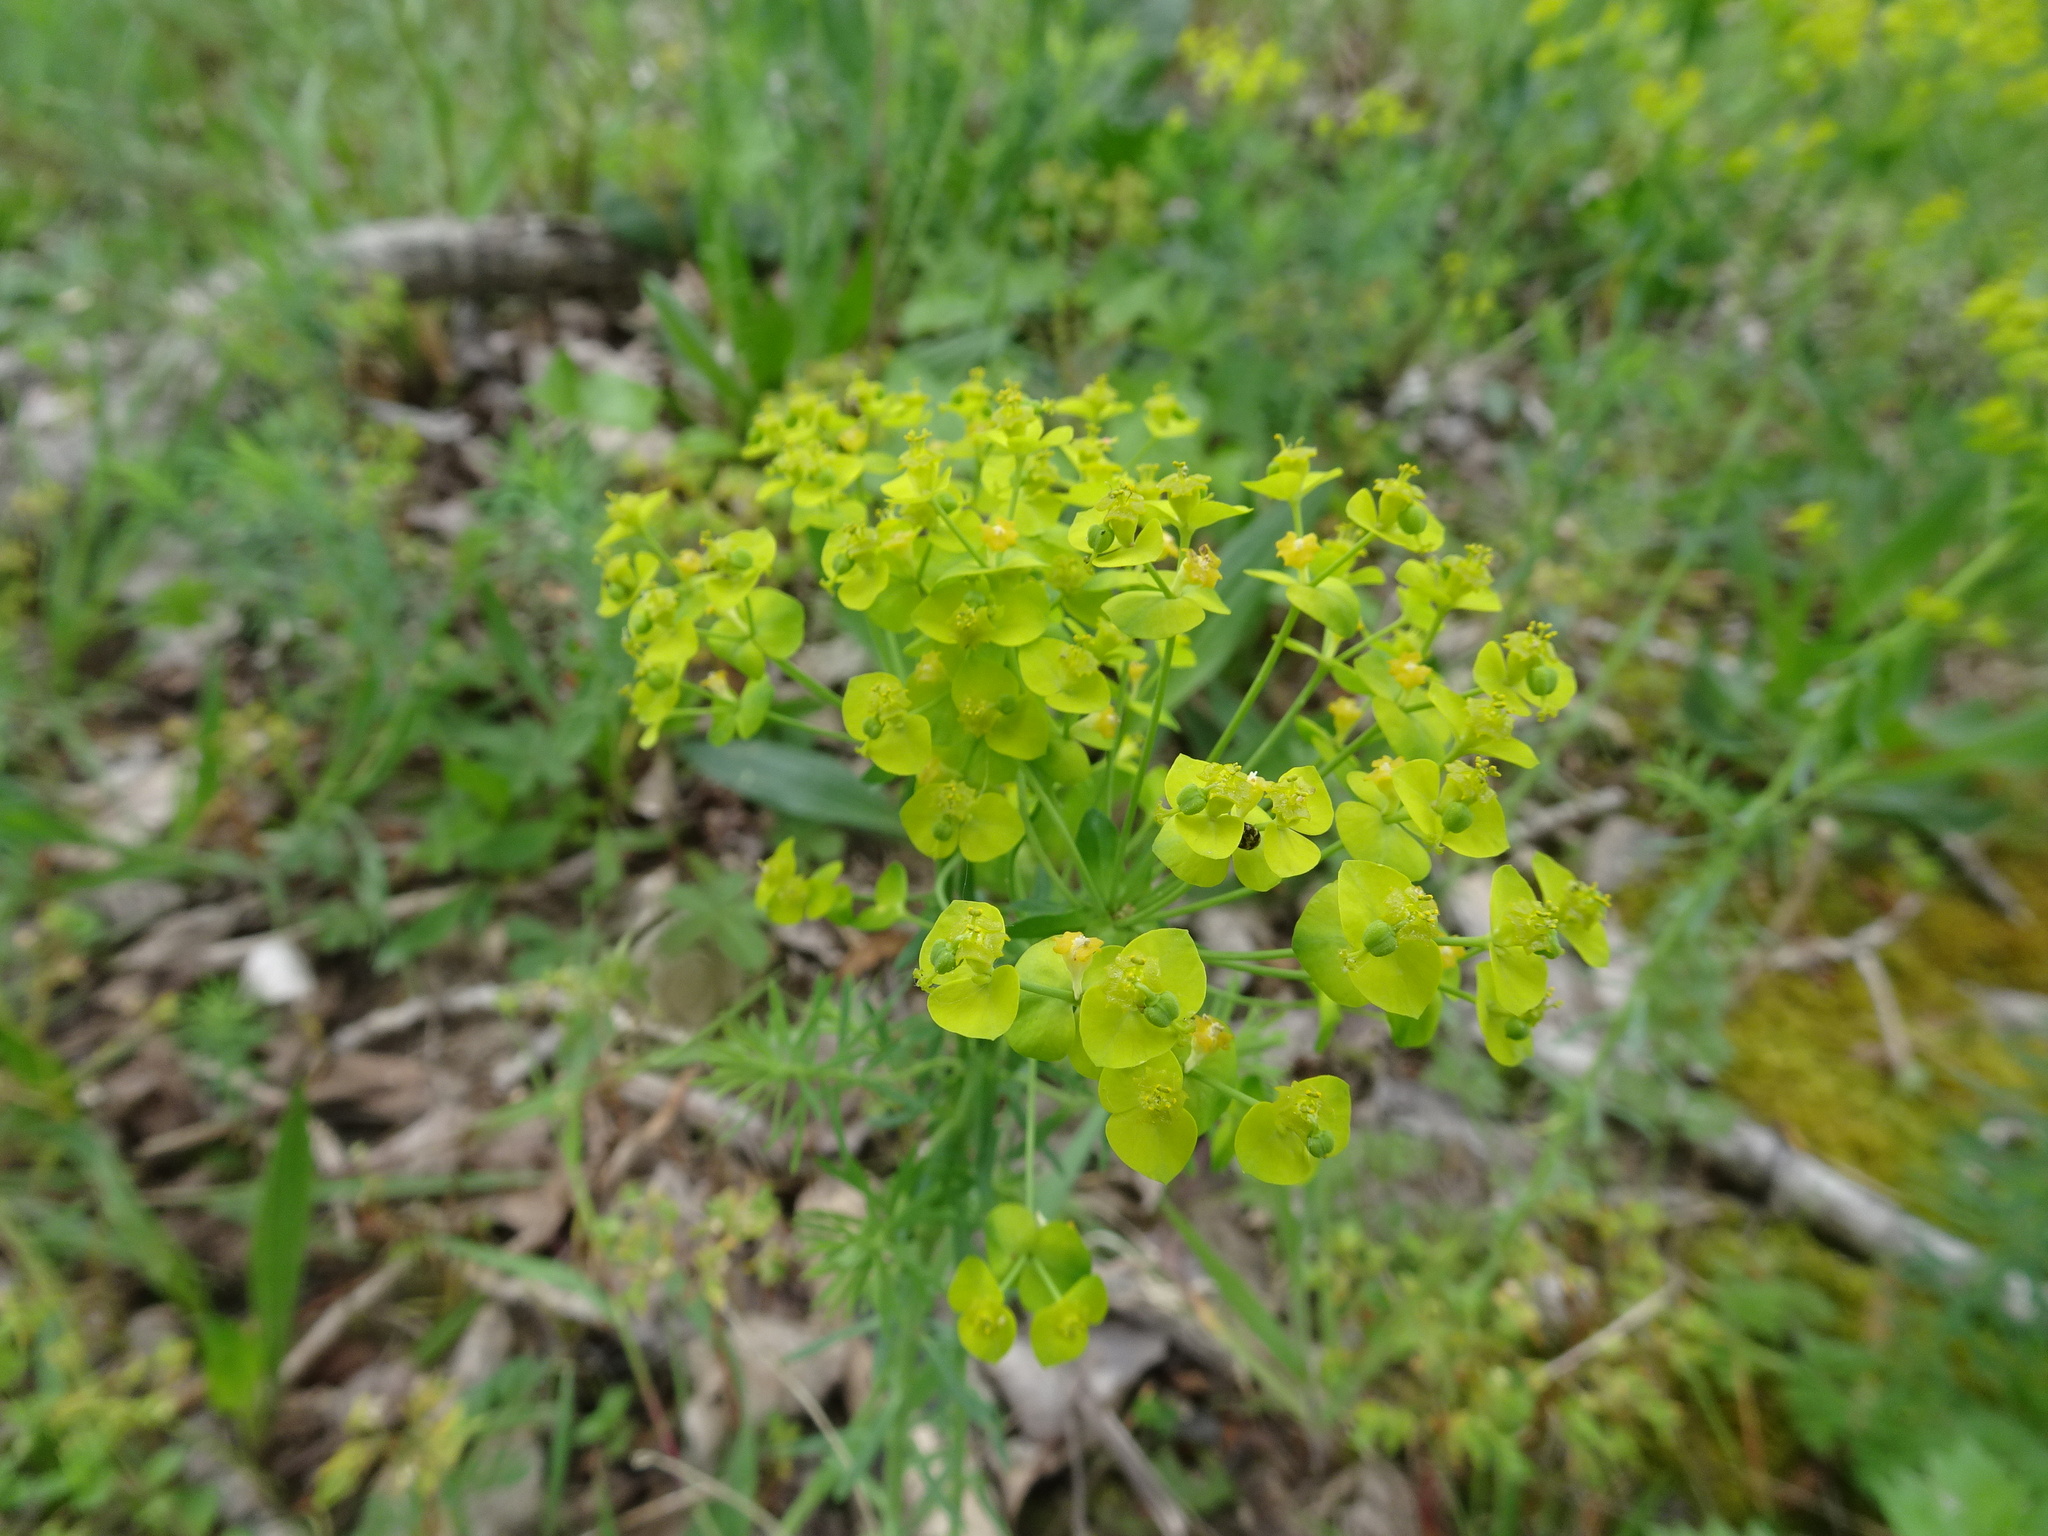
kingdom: Plantae
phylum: Tracheophyta
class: Magnoliopsida
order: Malpighiales
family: Euphorbiaceae
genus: Euphorbia
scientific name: Euphorbia cyparissias
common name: Cypress spurge
